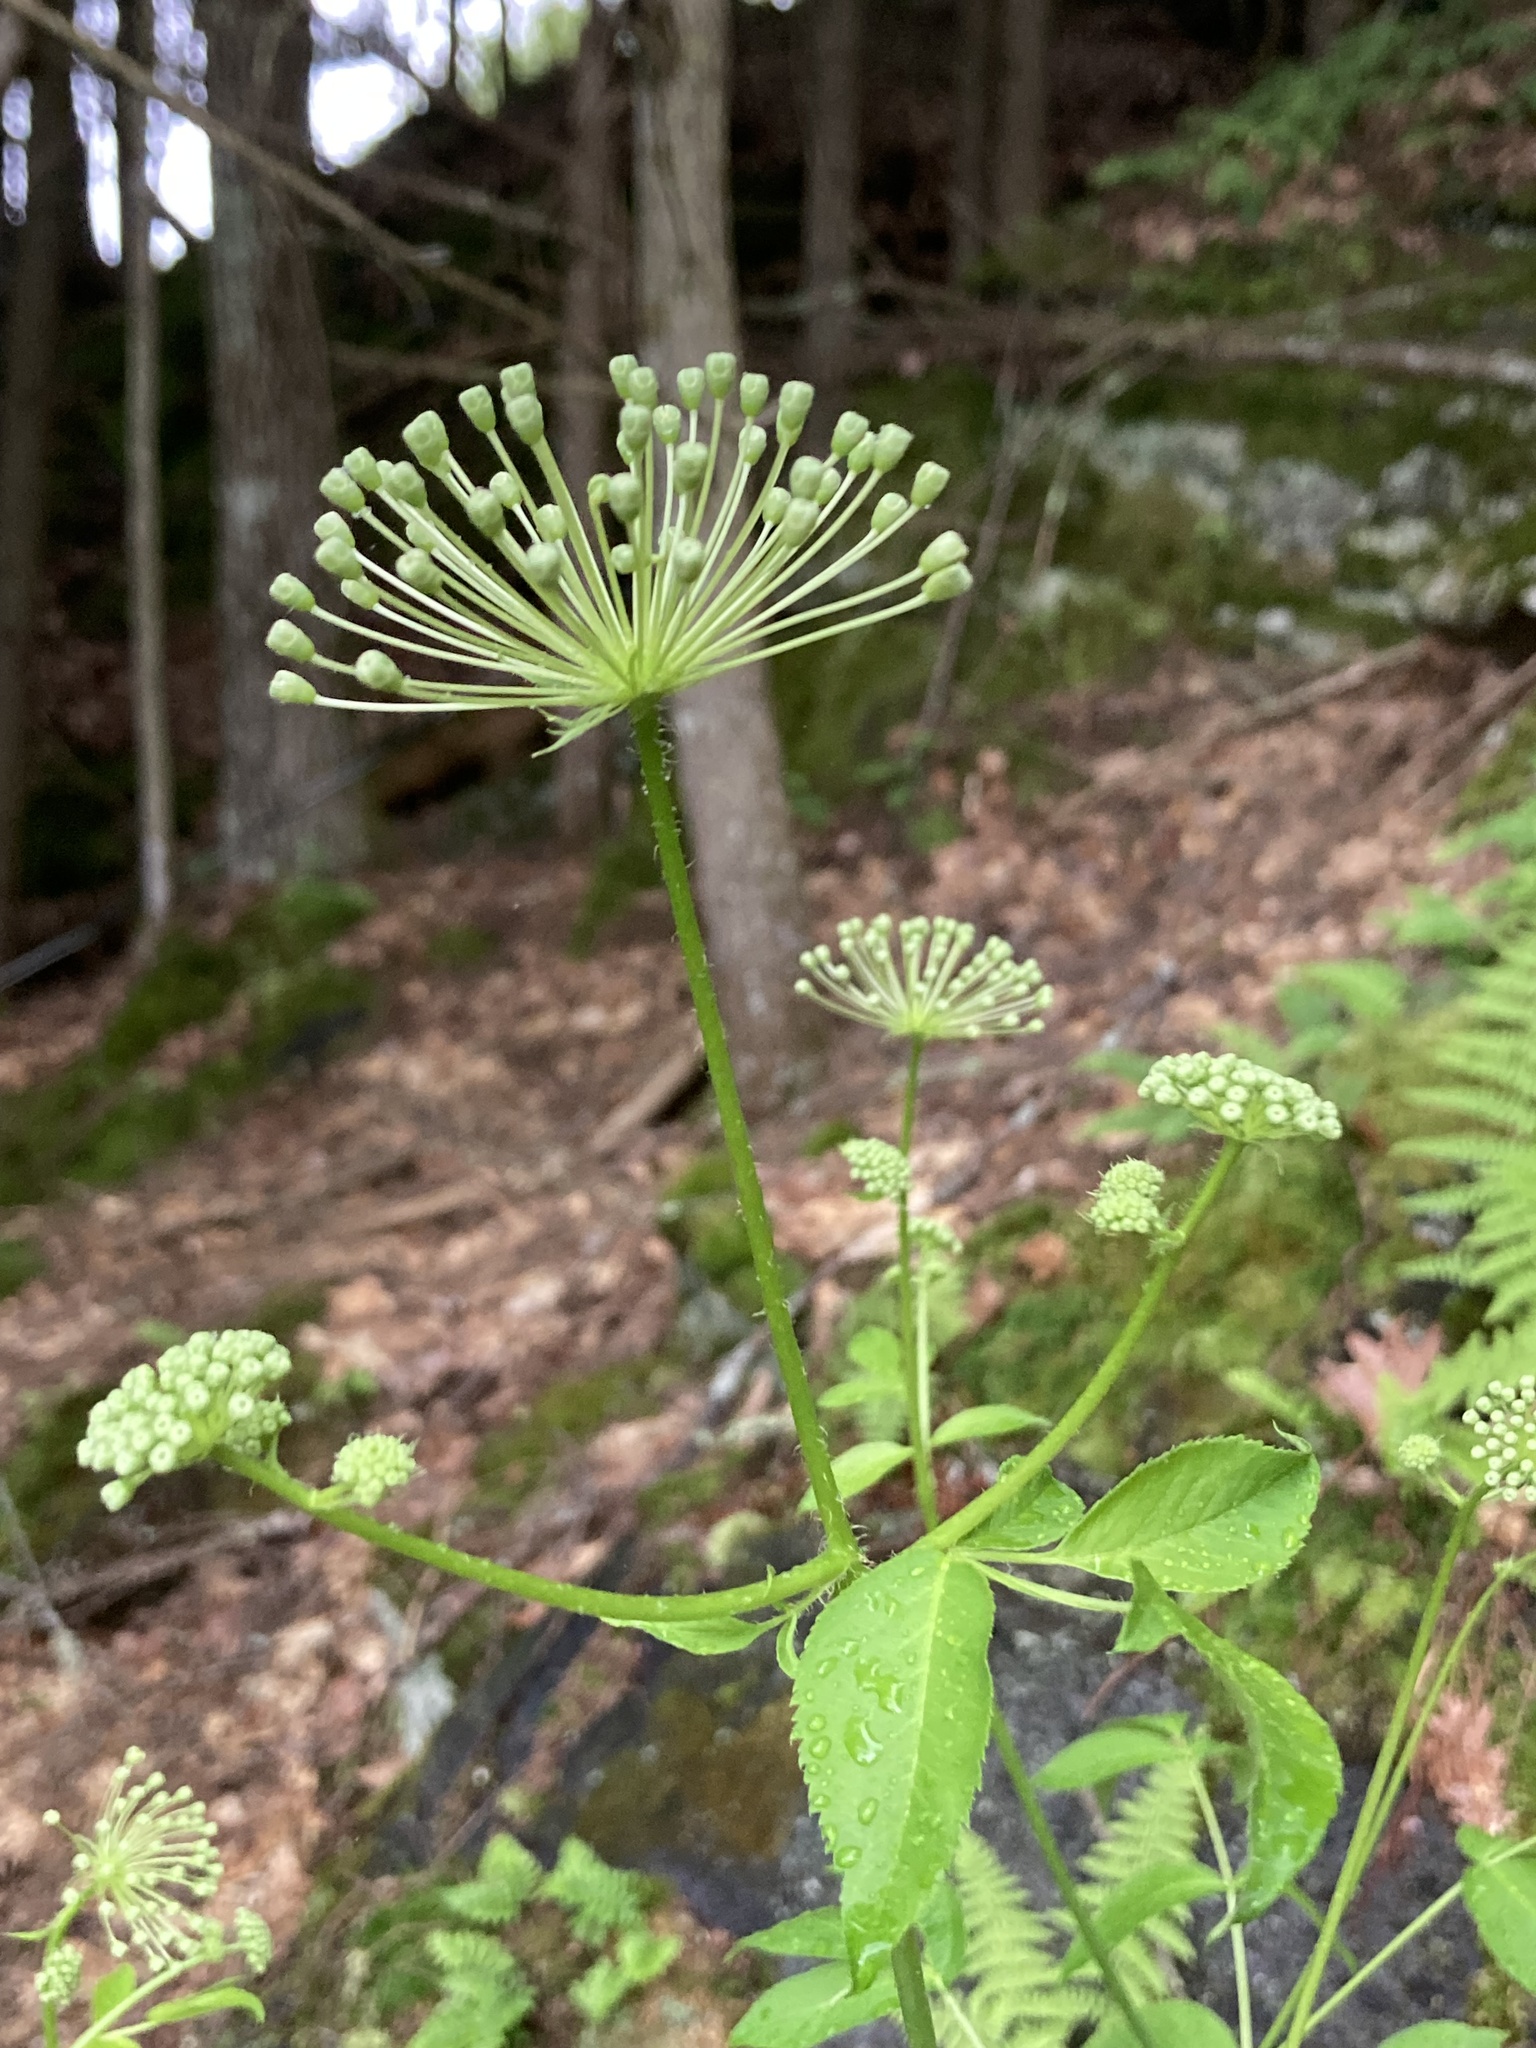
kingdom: Plantae
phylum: Tracheophyta
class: Magnoliopsida
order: Apiales
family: Araliaceae
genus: Aralia
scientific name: Aralia hispida
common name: Bristly sarsaparilla
